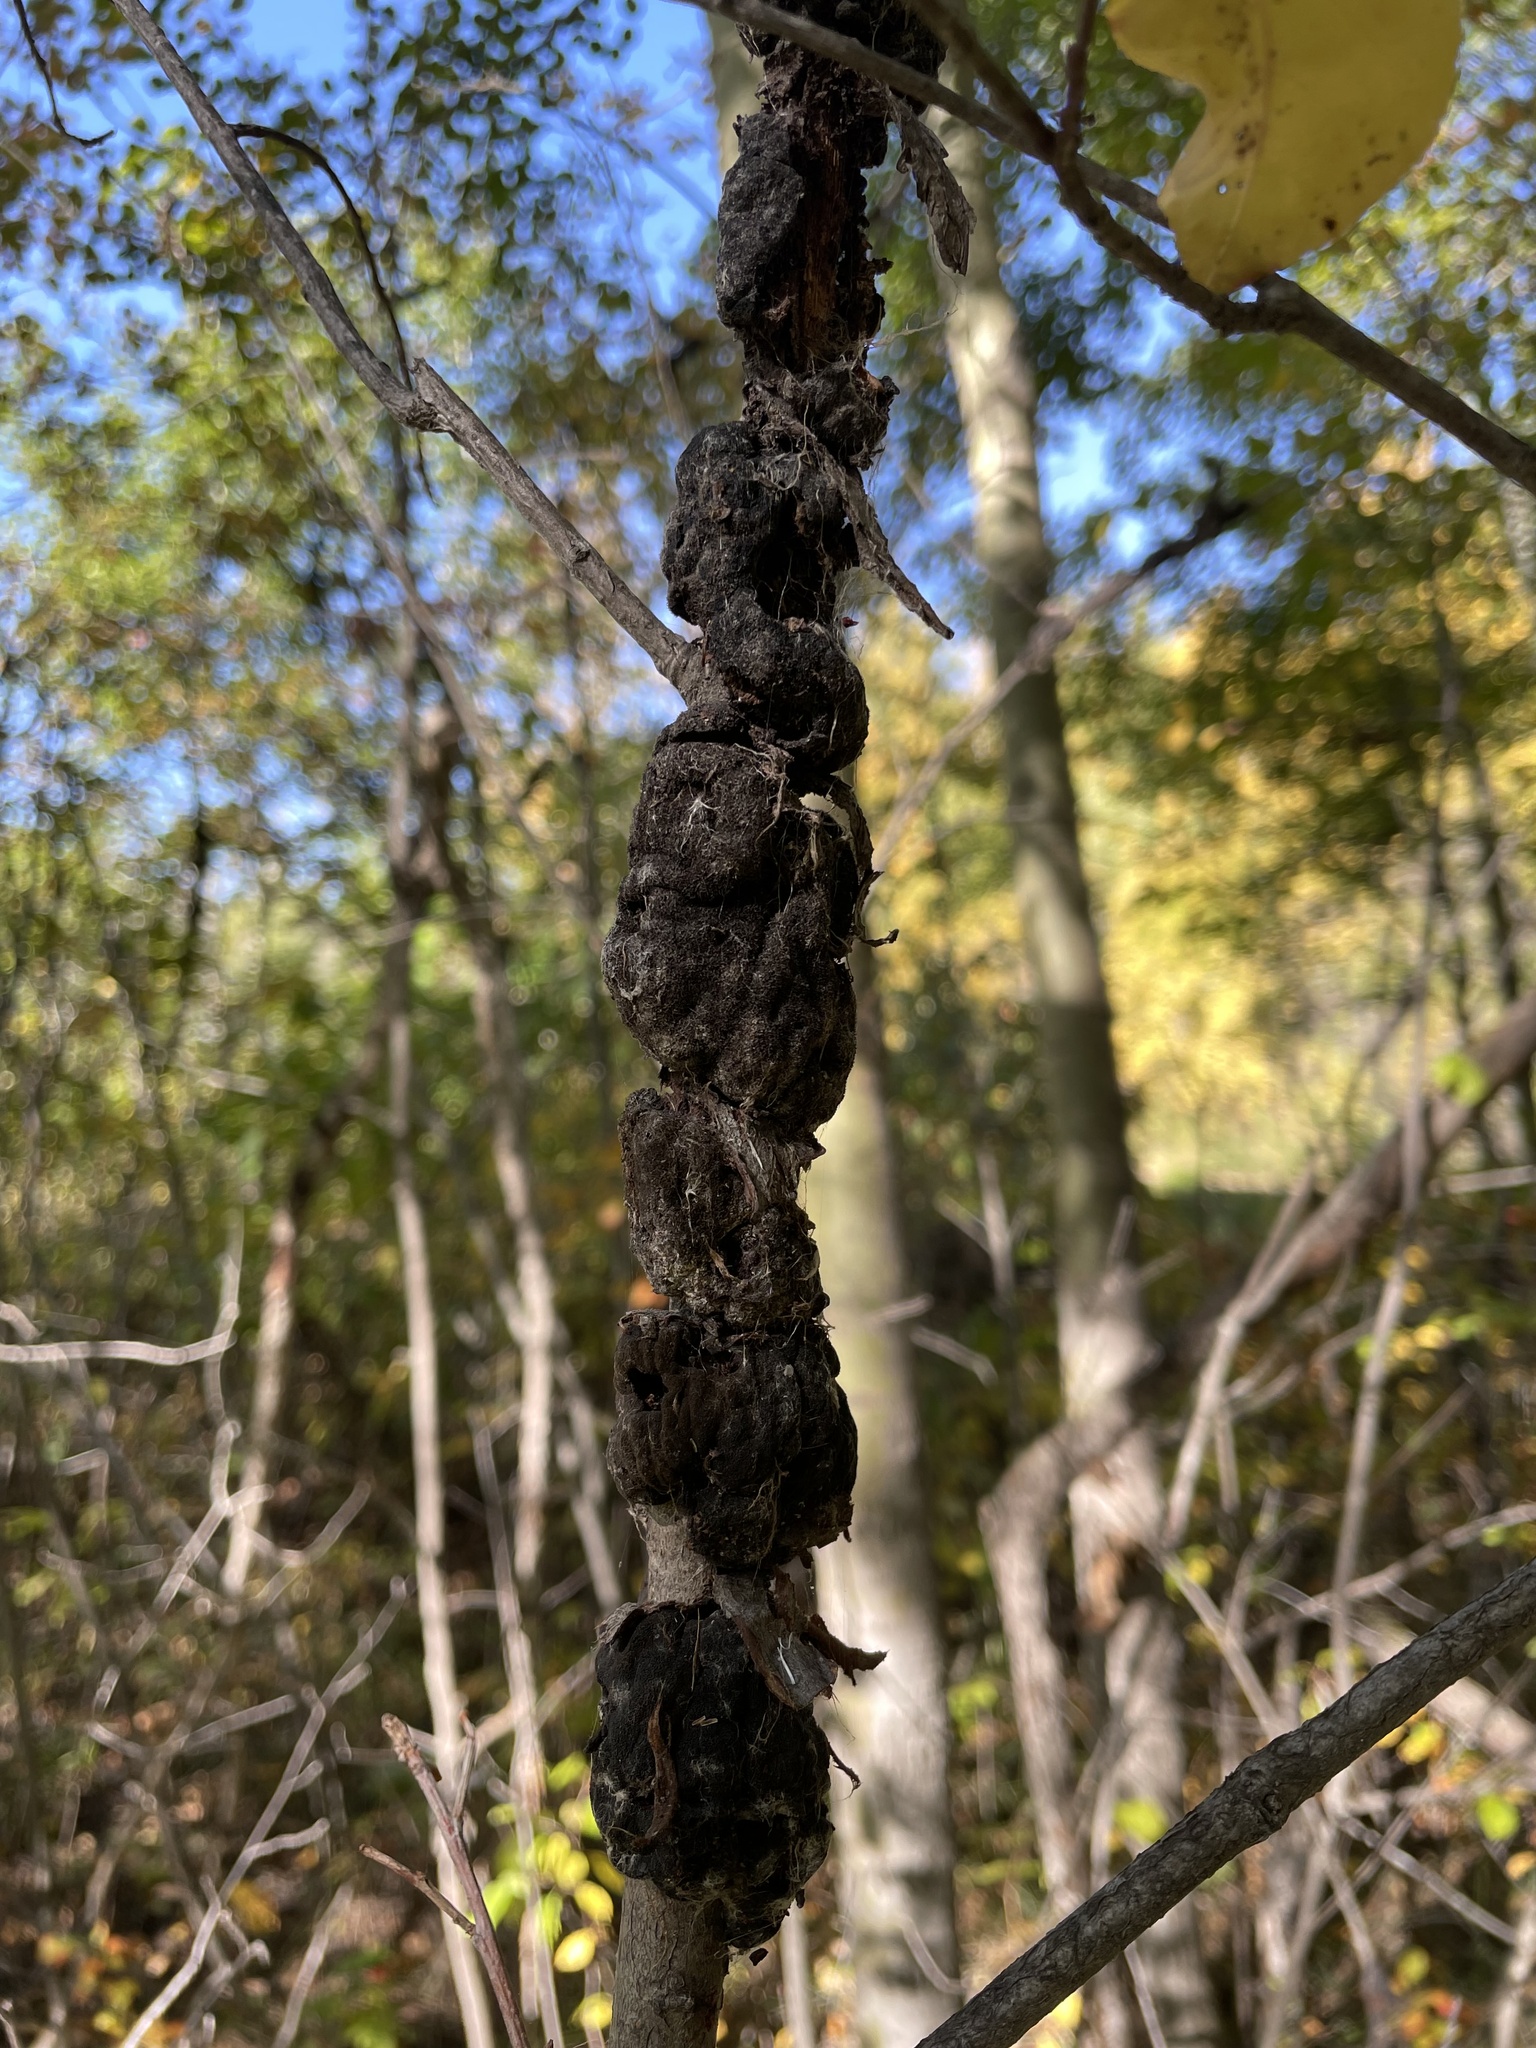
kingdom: Fungi
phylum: Ascomycota
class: Dothideomycetes
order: Venturiales
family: Venturiaceae
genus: Apiosporina
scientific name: Apiosporina morbosa
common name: Black knot
